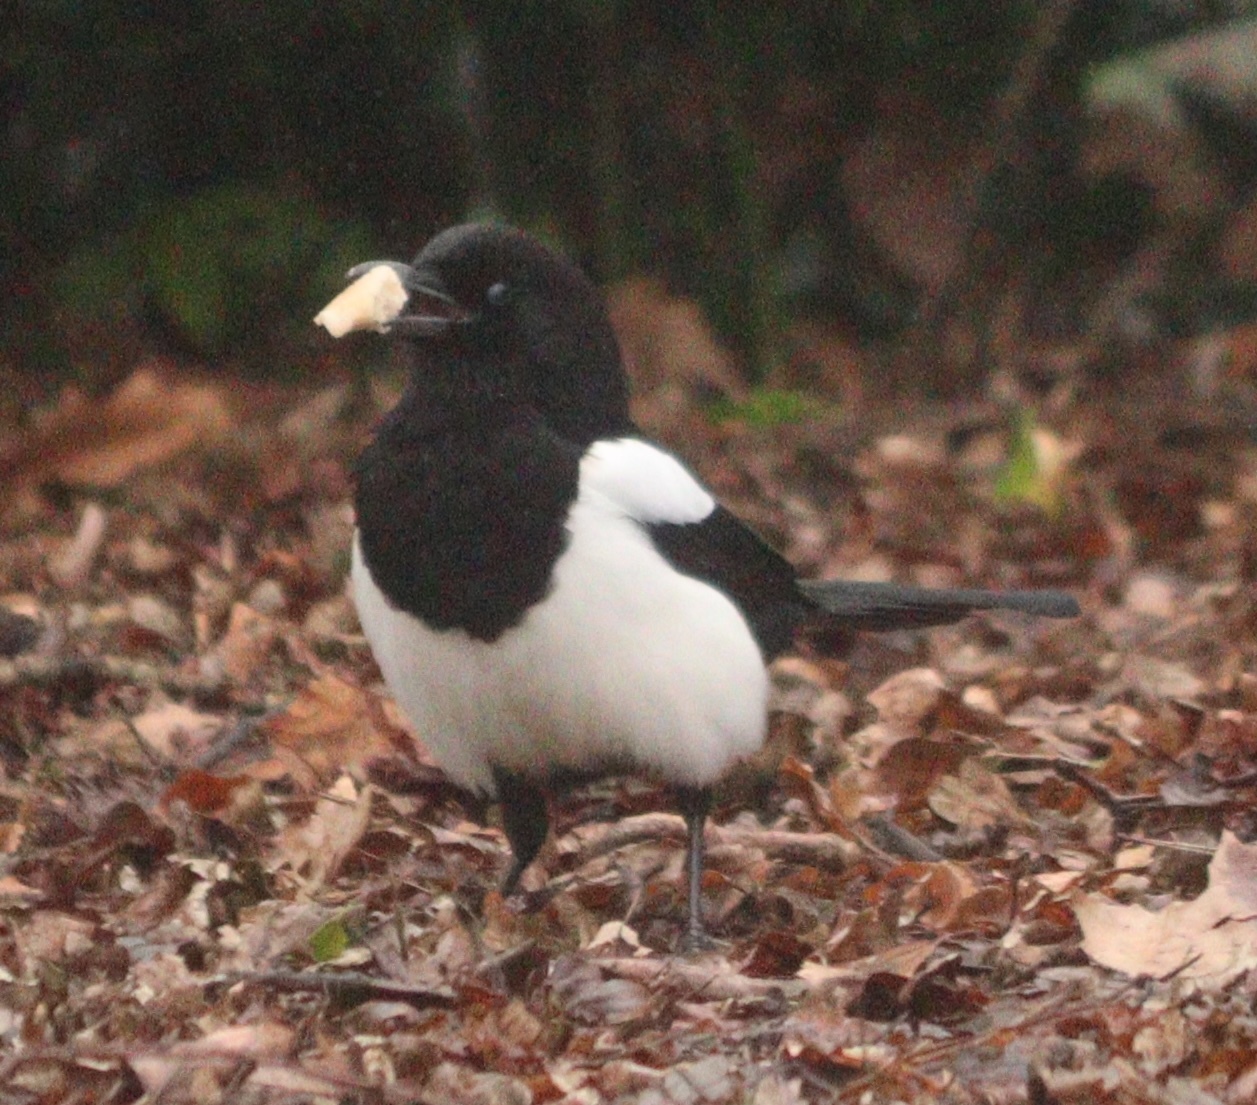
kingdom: Animalia
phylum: Chordata
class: Aves
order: Passeriformes
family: Corvidae
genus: Pica
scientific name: Pica pica
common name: Eurasian magpie
